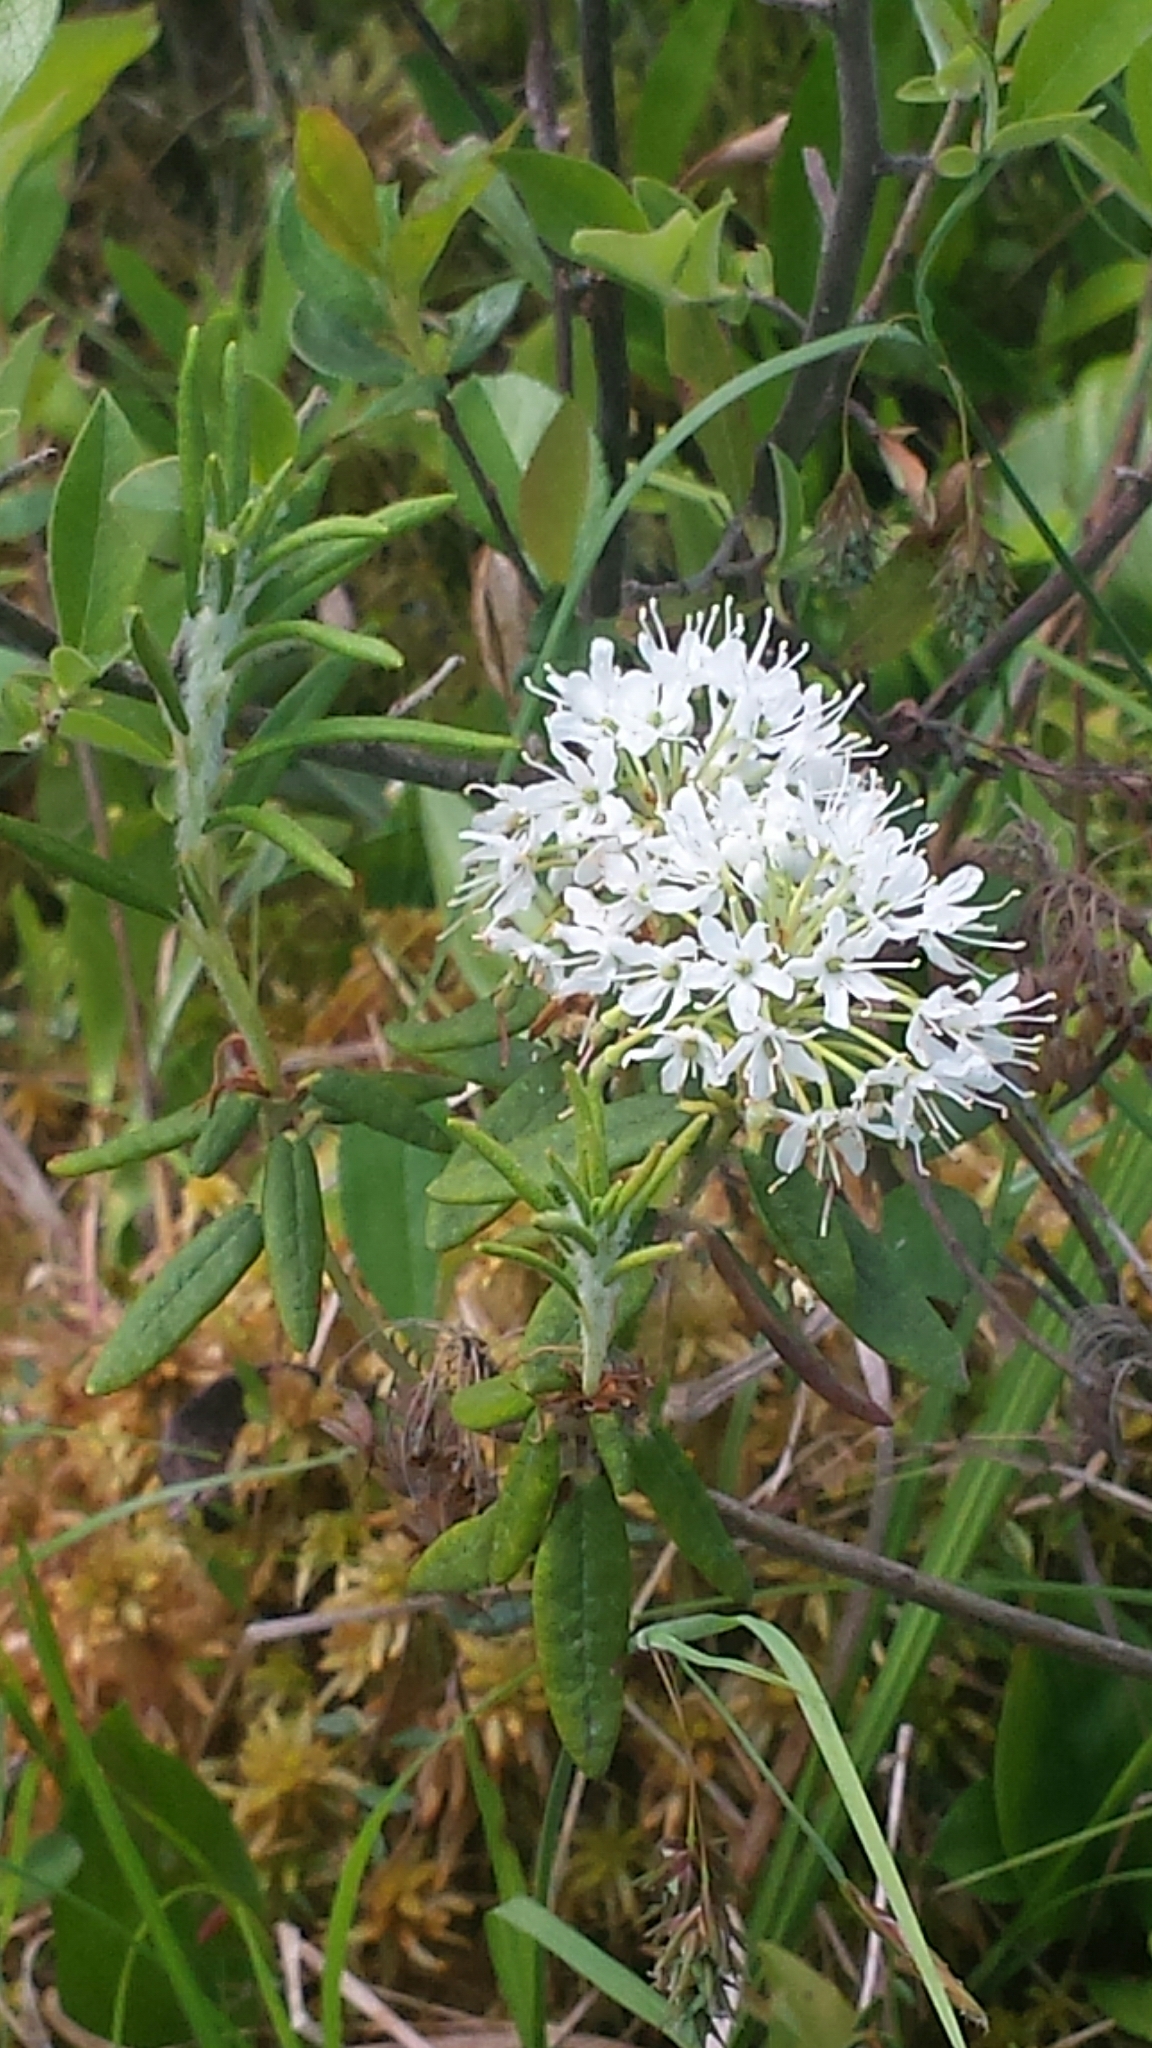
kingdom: Plantae
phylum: Tracheophyta
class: Magnoliopsida
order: Ericales
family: Ericaceae
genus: Rhododendron
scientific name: Rhododendron groenlandicum
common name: Bog labrador tea
